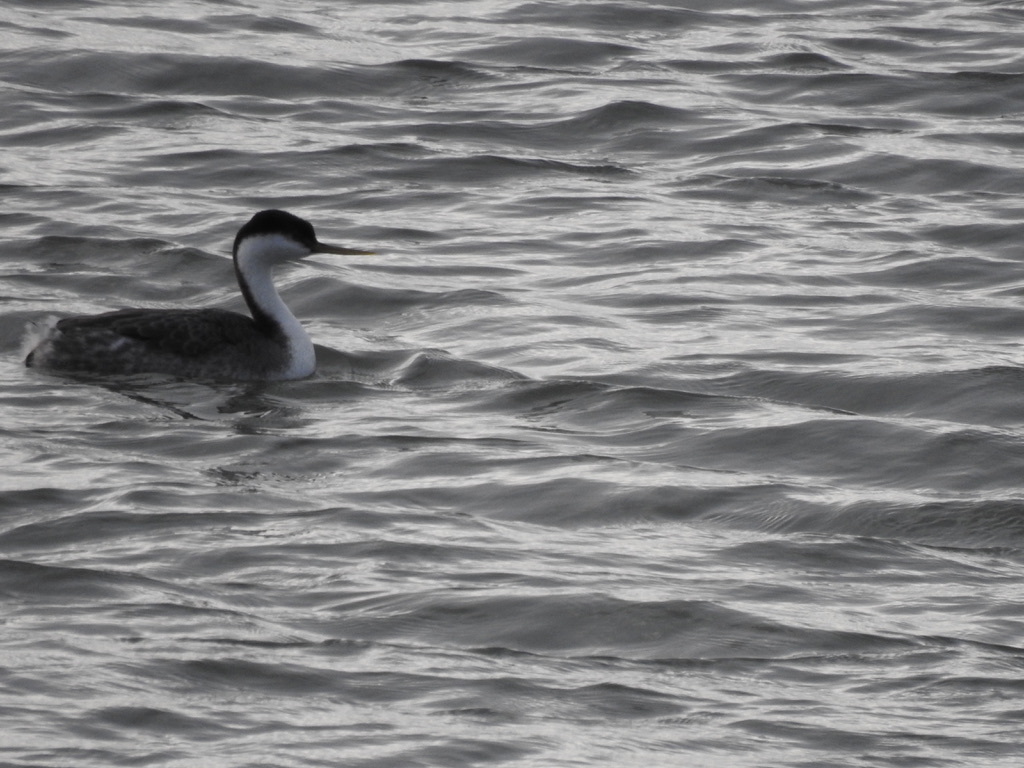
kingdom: Animalia
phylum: Chordata
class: Aves
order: Podicipediformes
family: Podicipedidae
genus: Aechmophorus
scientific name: Aechmophorus occidentalis
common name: Western grebe
